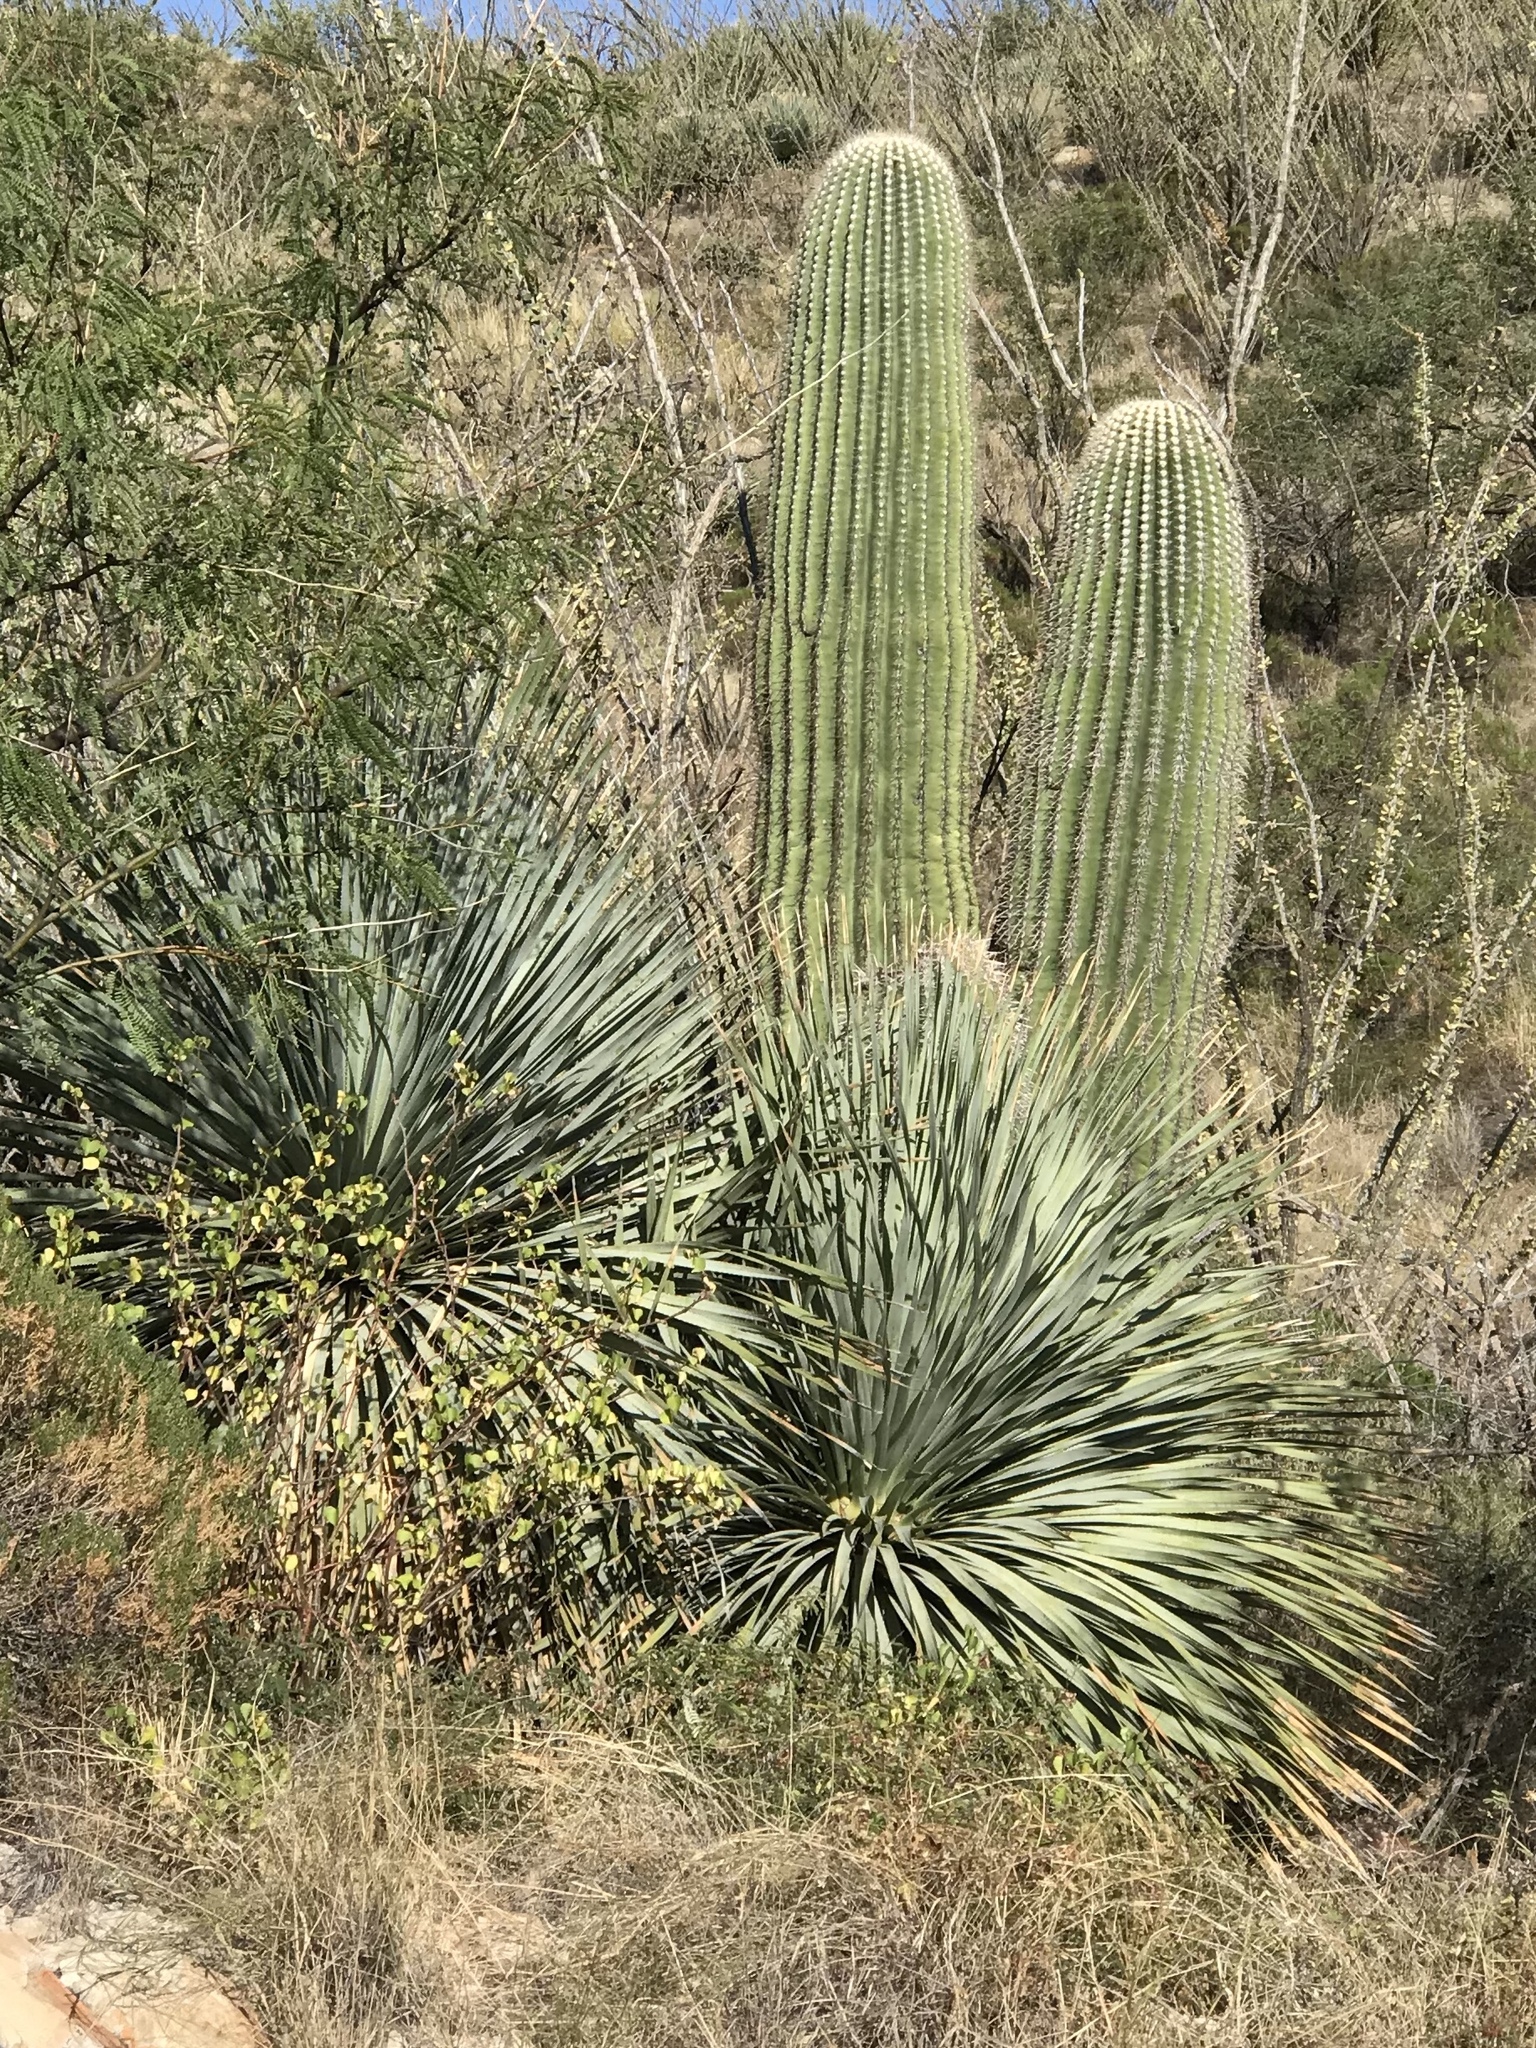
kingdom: Plantae
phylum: Tracheophyta
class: Liliopsida
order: Asparagales
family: Asparagaceae
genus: Dasylirion
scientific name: Dasylirion wheeleri
